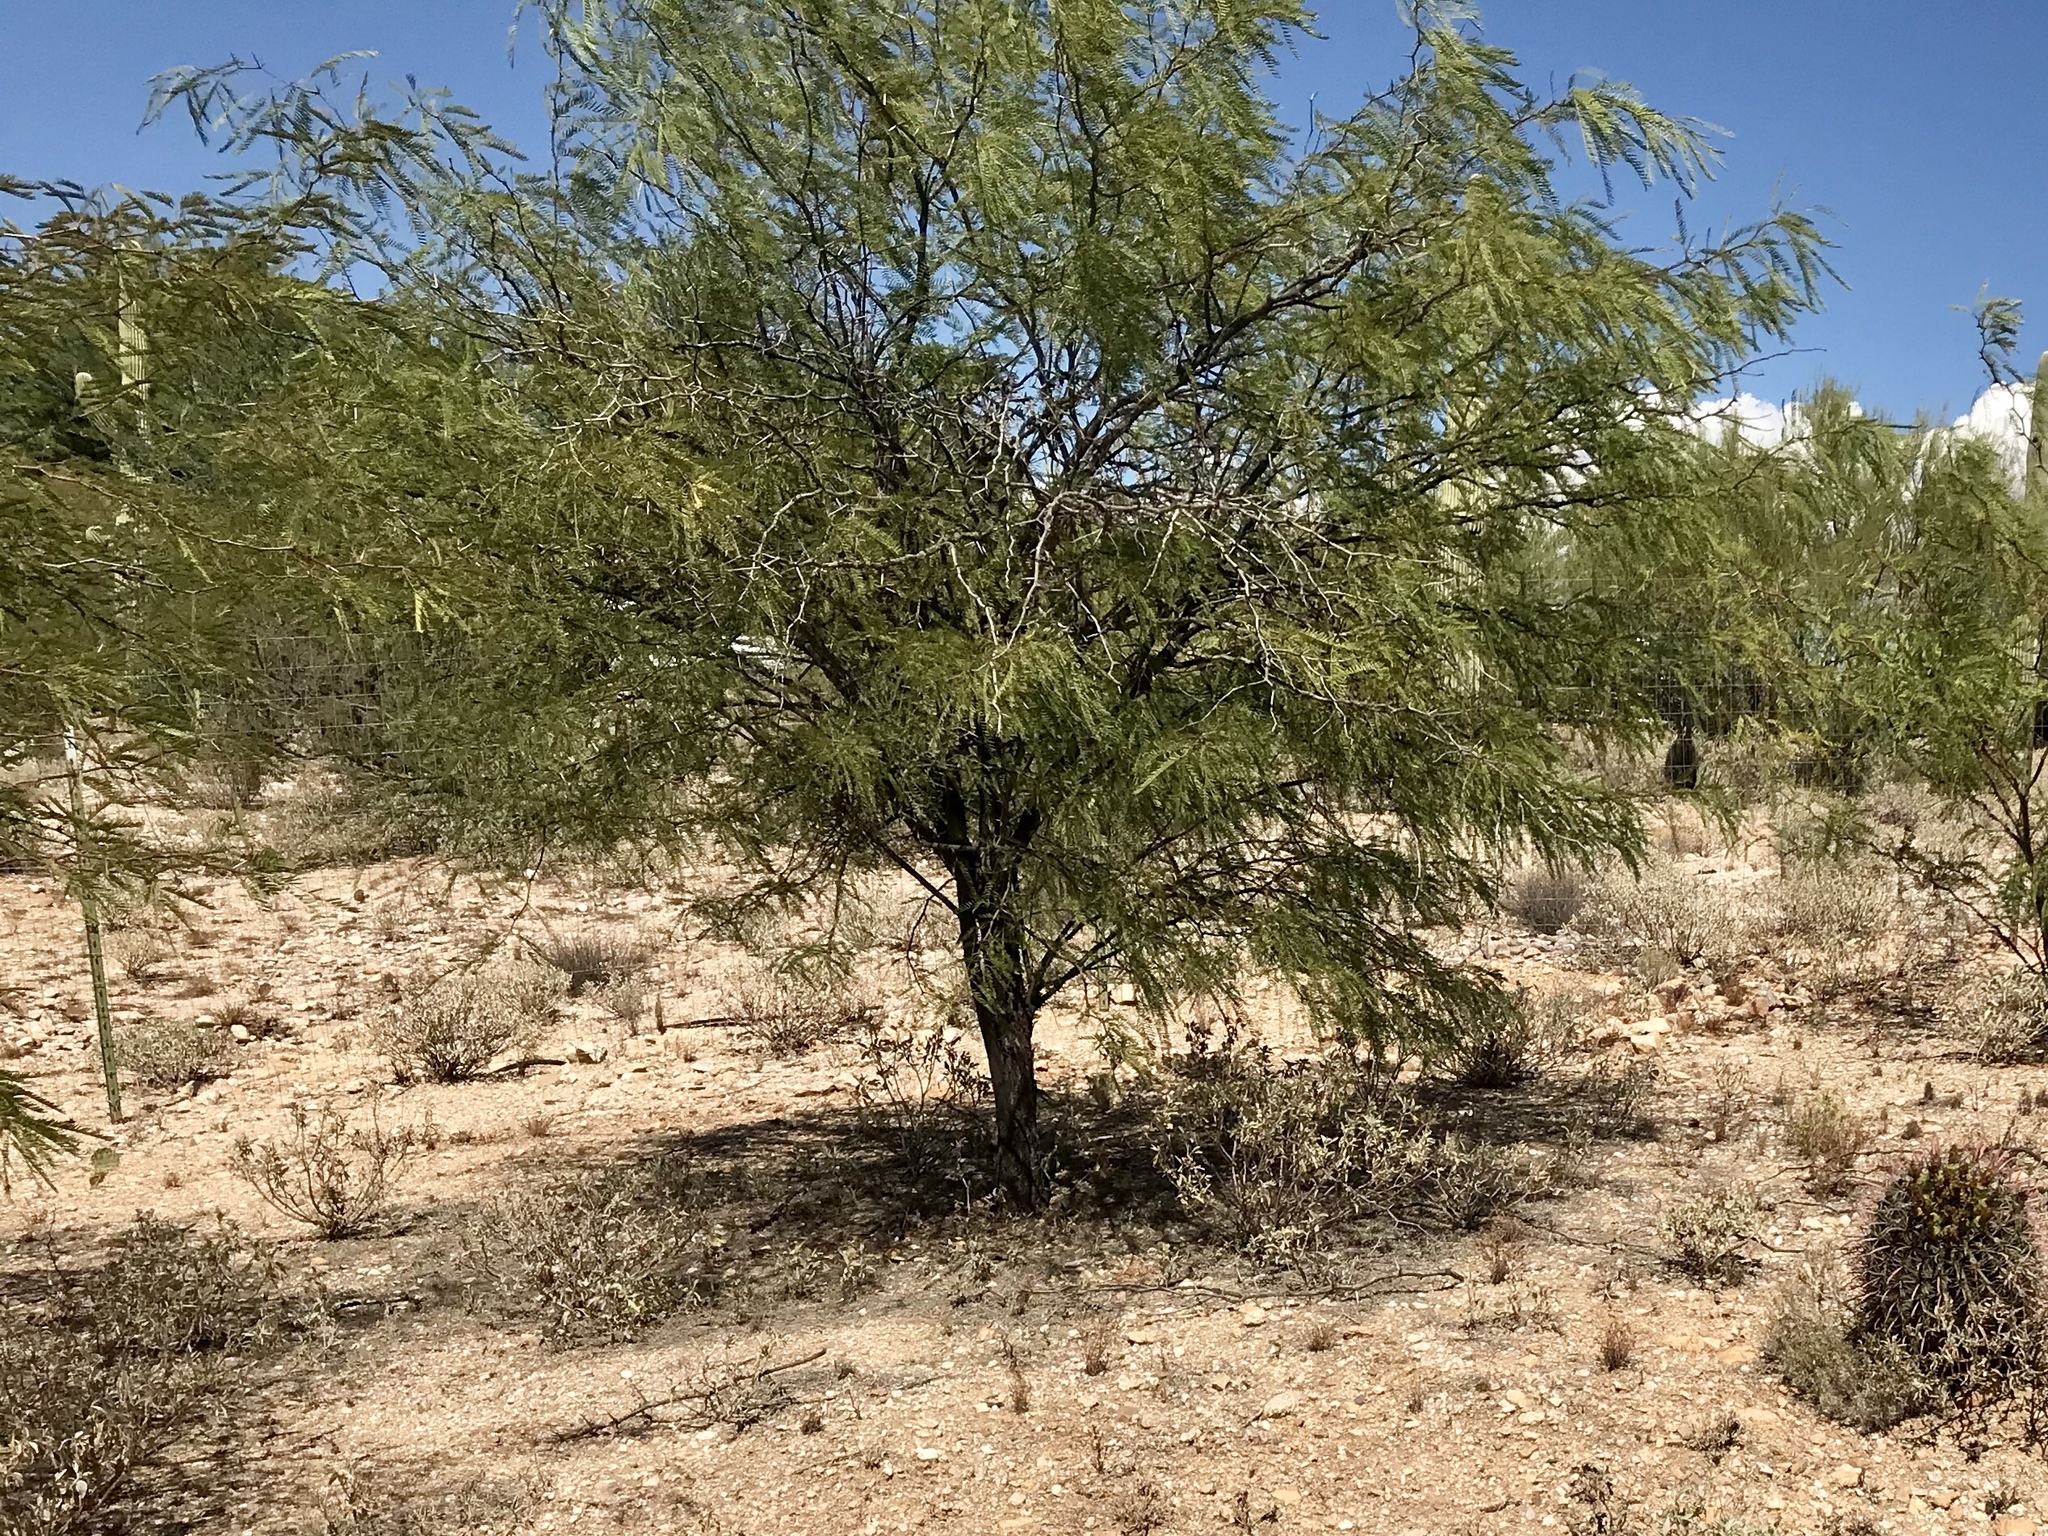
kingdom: Plantae
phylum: Tracheophyta
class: Magnoliopsida
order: Fabales
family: Fabaceae
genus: Prosopis
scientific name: Prosopis glandulosa
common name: Honey mesquite
